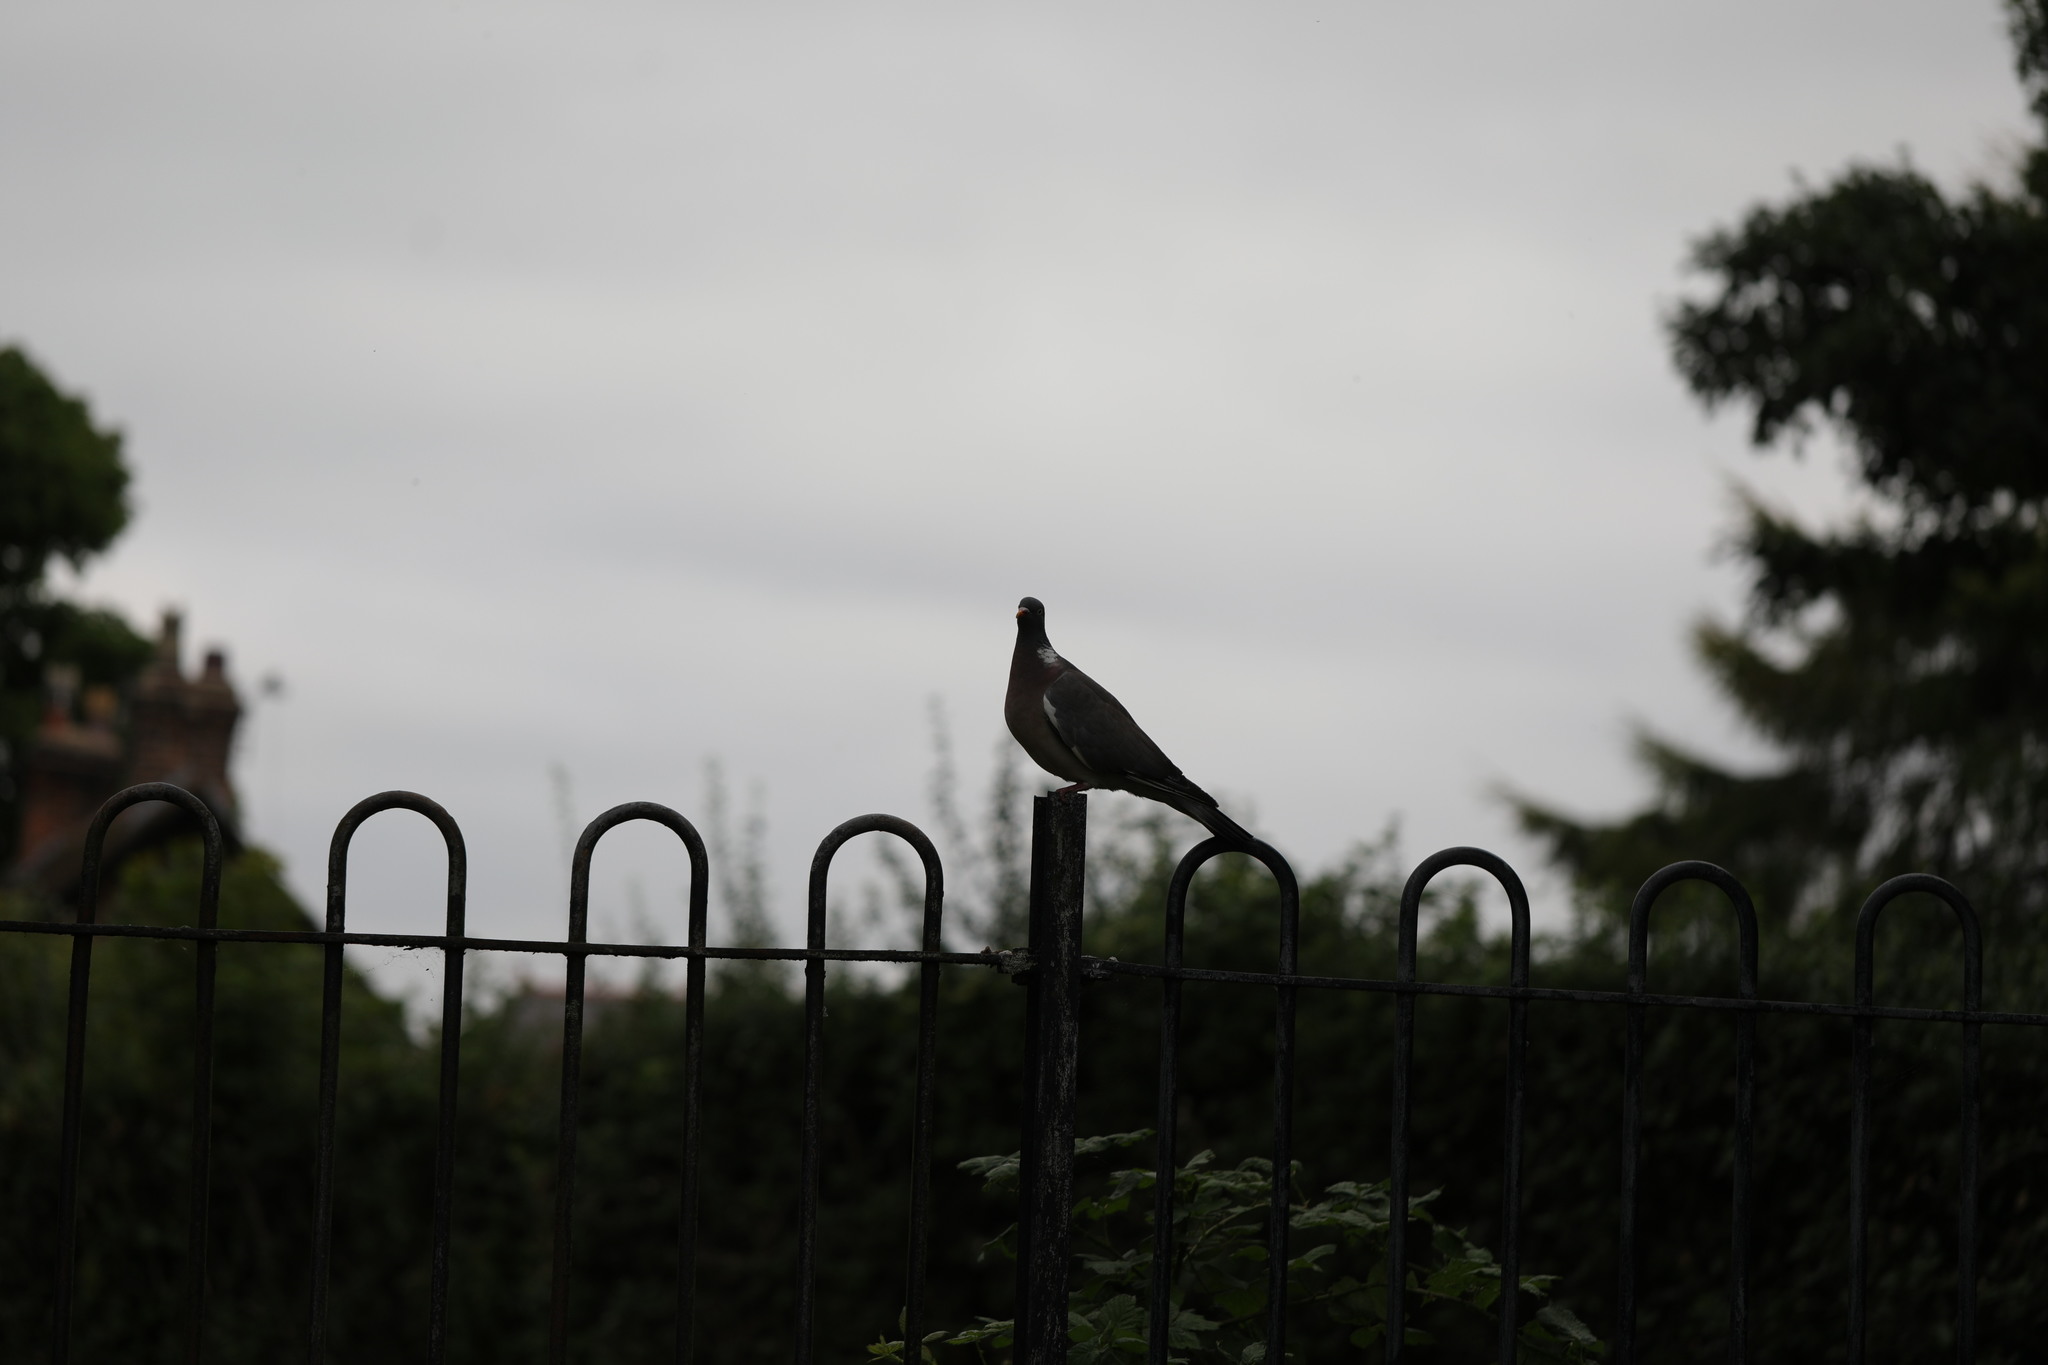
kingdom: Animalia
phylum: Chordata
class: Aves
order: Columbiformes
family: Columbidae
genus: Columba
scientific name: Columba palumbus
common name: Common wood pigeon
